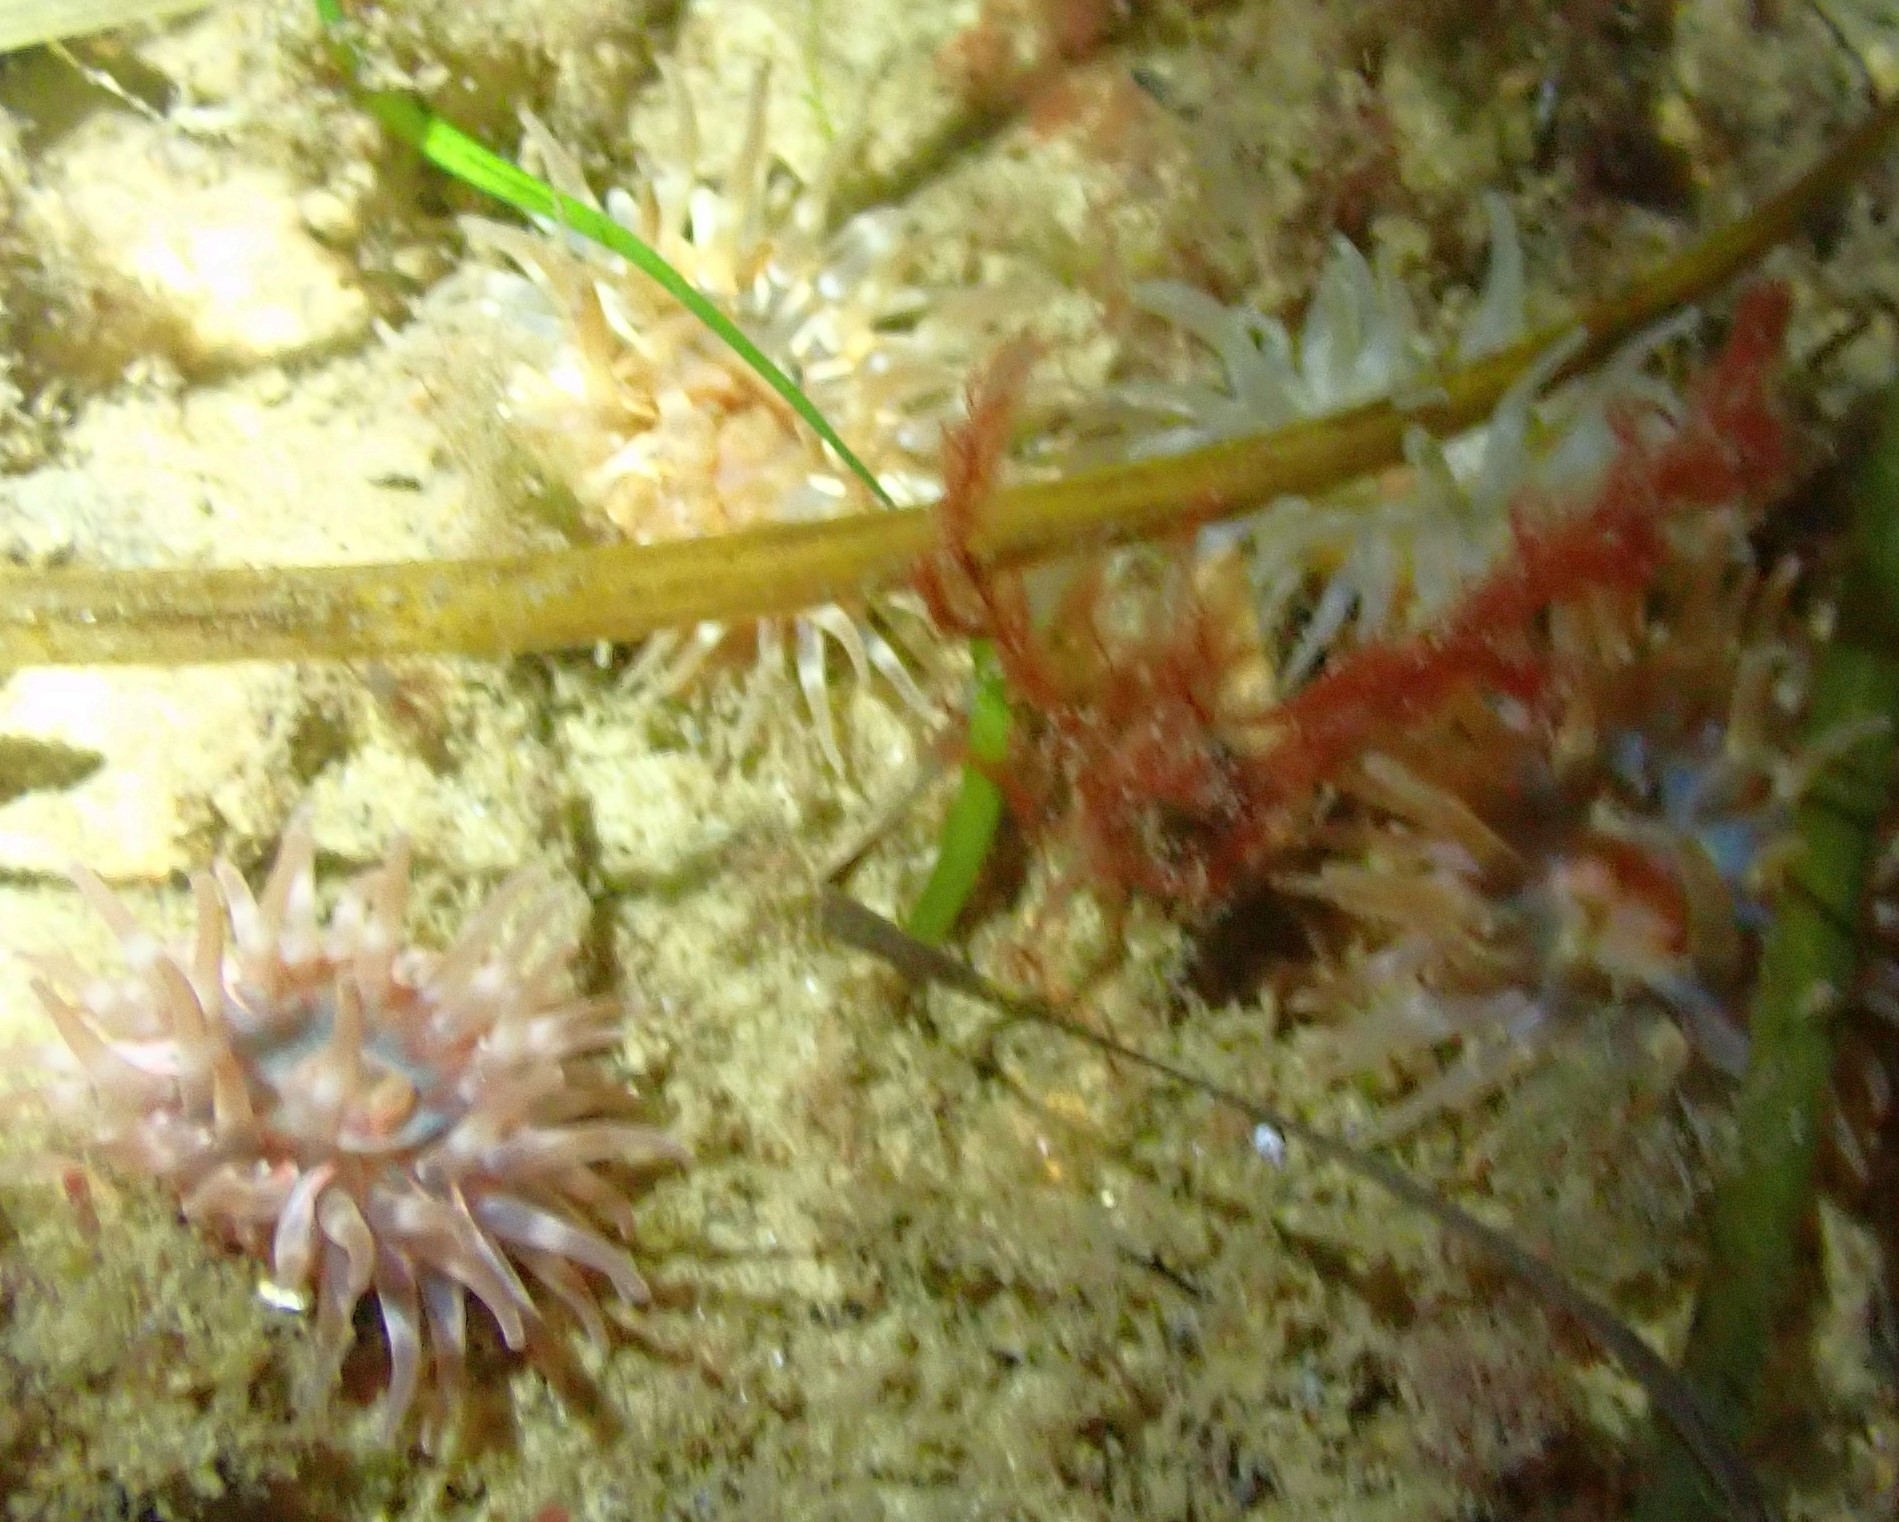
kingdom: Animalia
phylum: Cnidaria
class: Anthozoa
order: Actiniaria
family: Actiniidae
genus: Urticina
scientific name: Urticina felina
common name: Dahlia anemone
